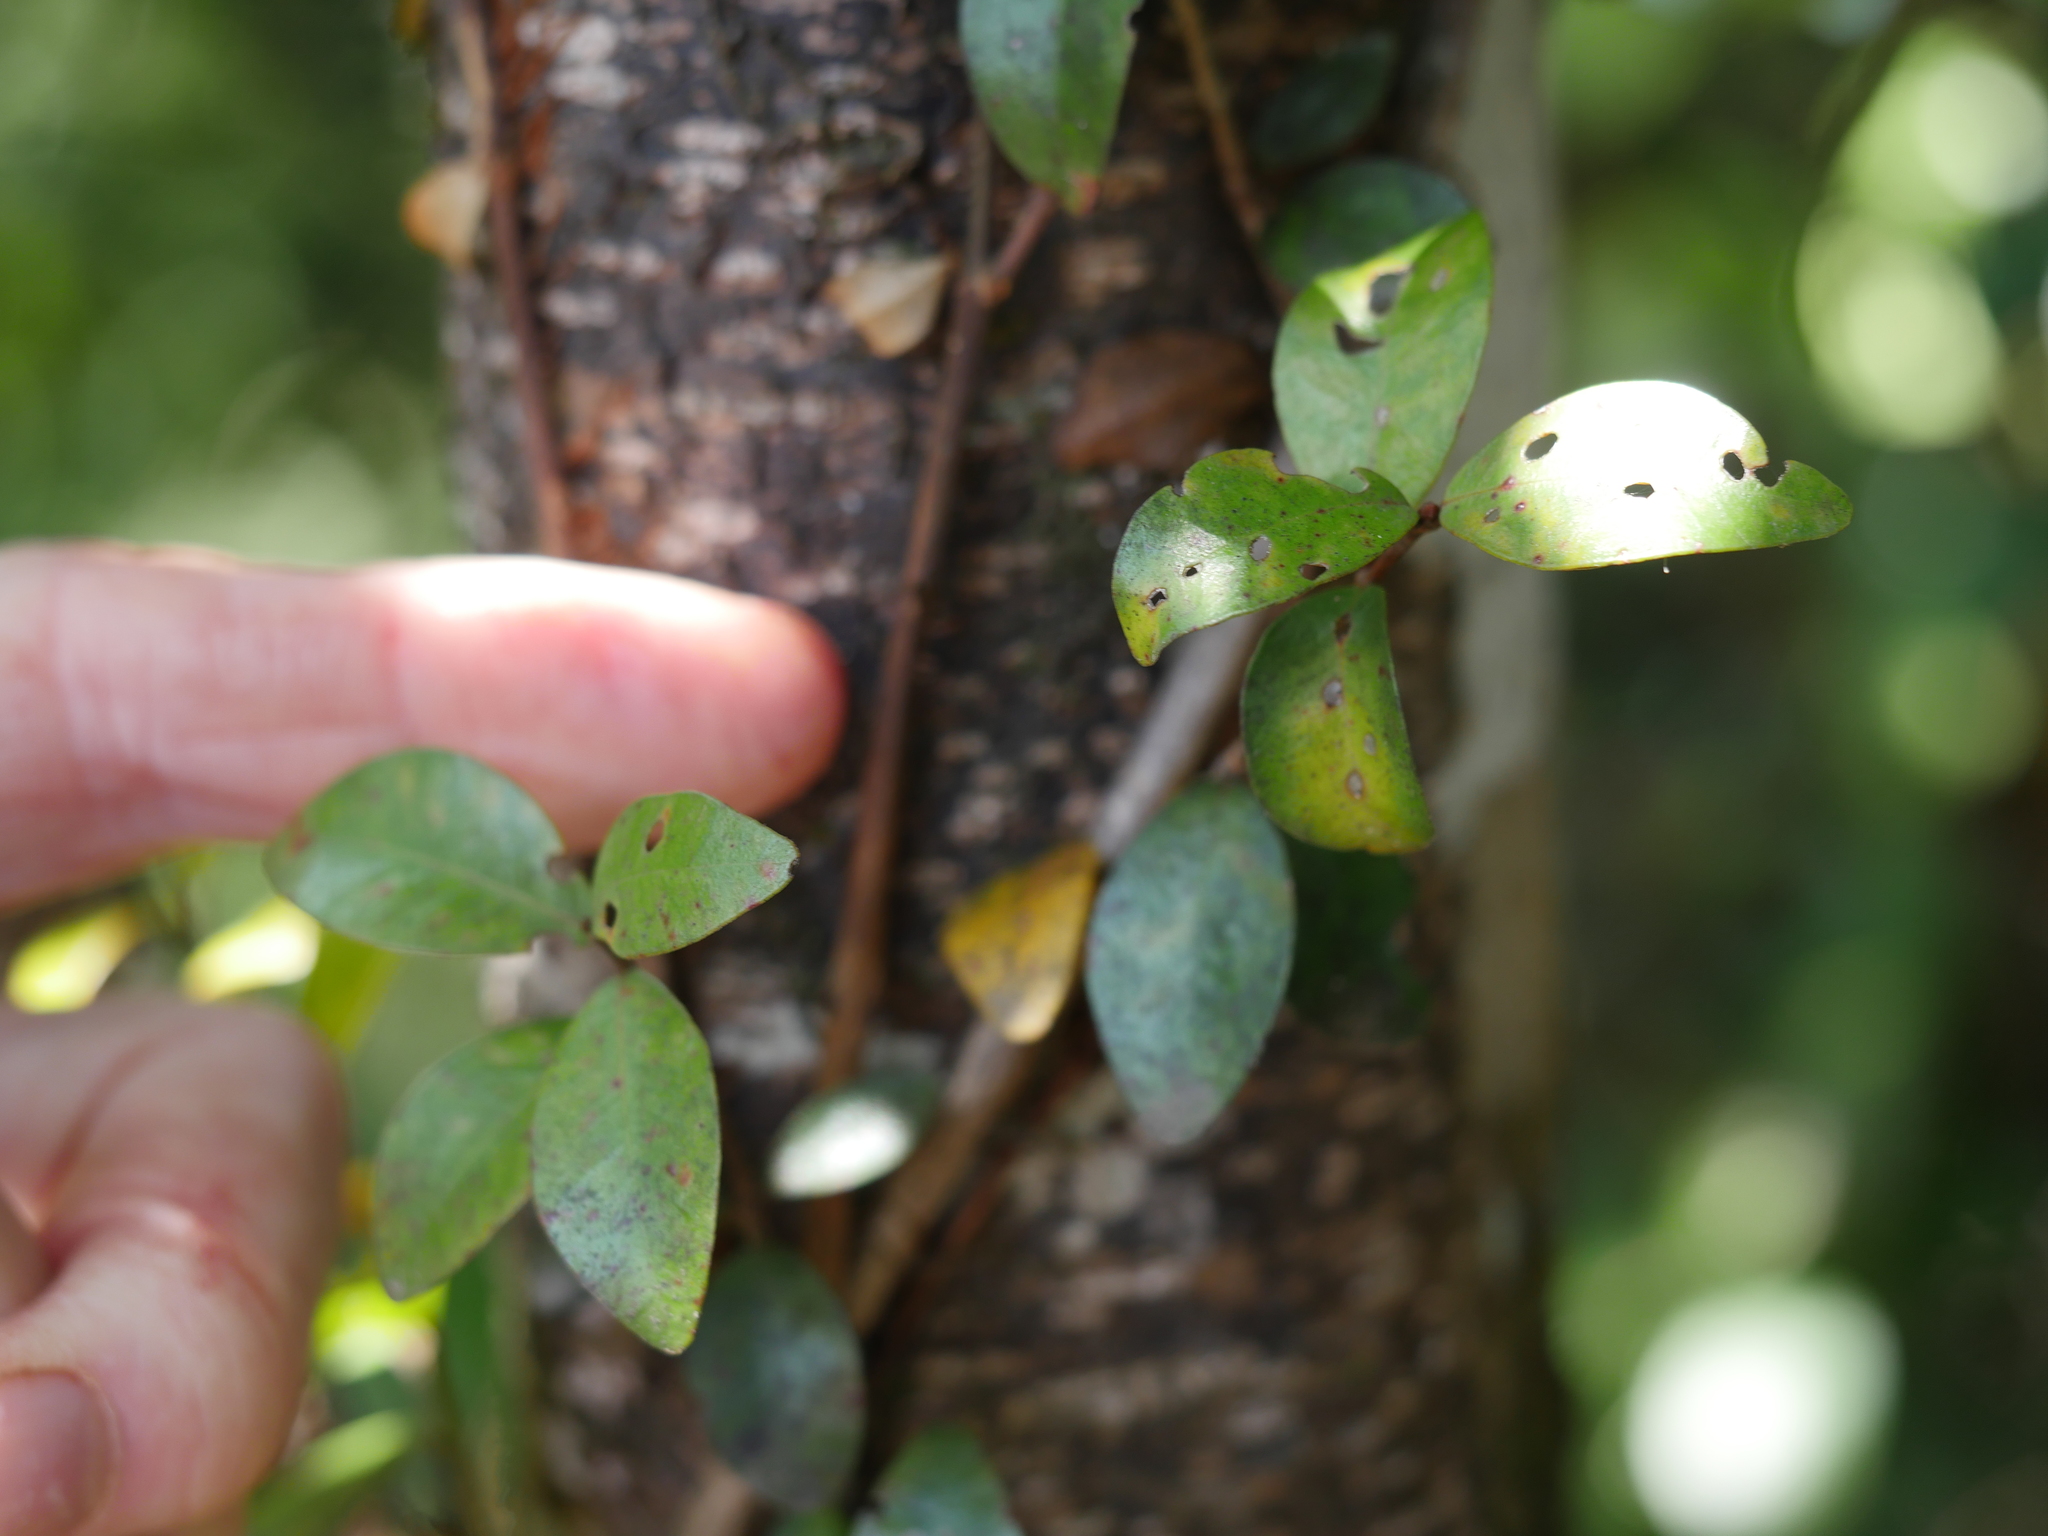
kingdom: Plantae
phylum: Tracheophyta
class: Magnoliopsida
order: Myrtales
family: Myrtaceae
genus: Metrosideros
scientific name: Metrosideros fulgens
